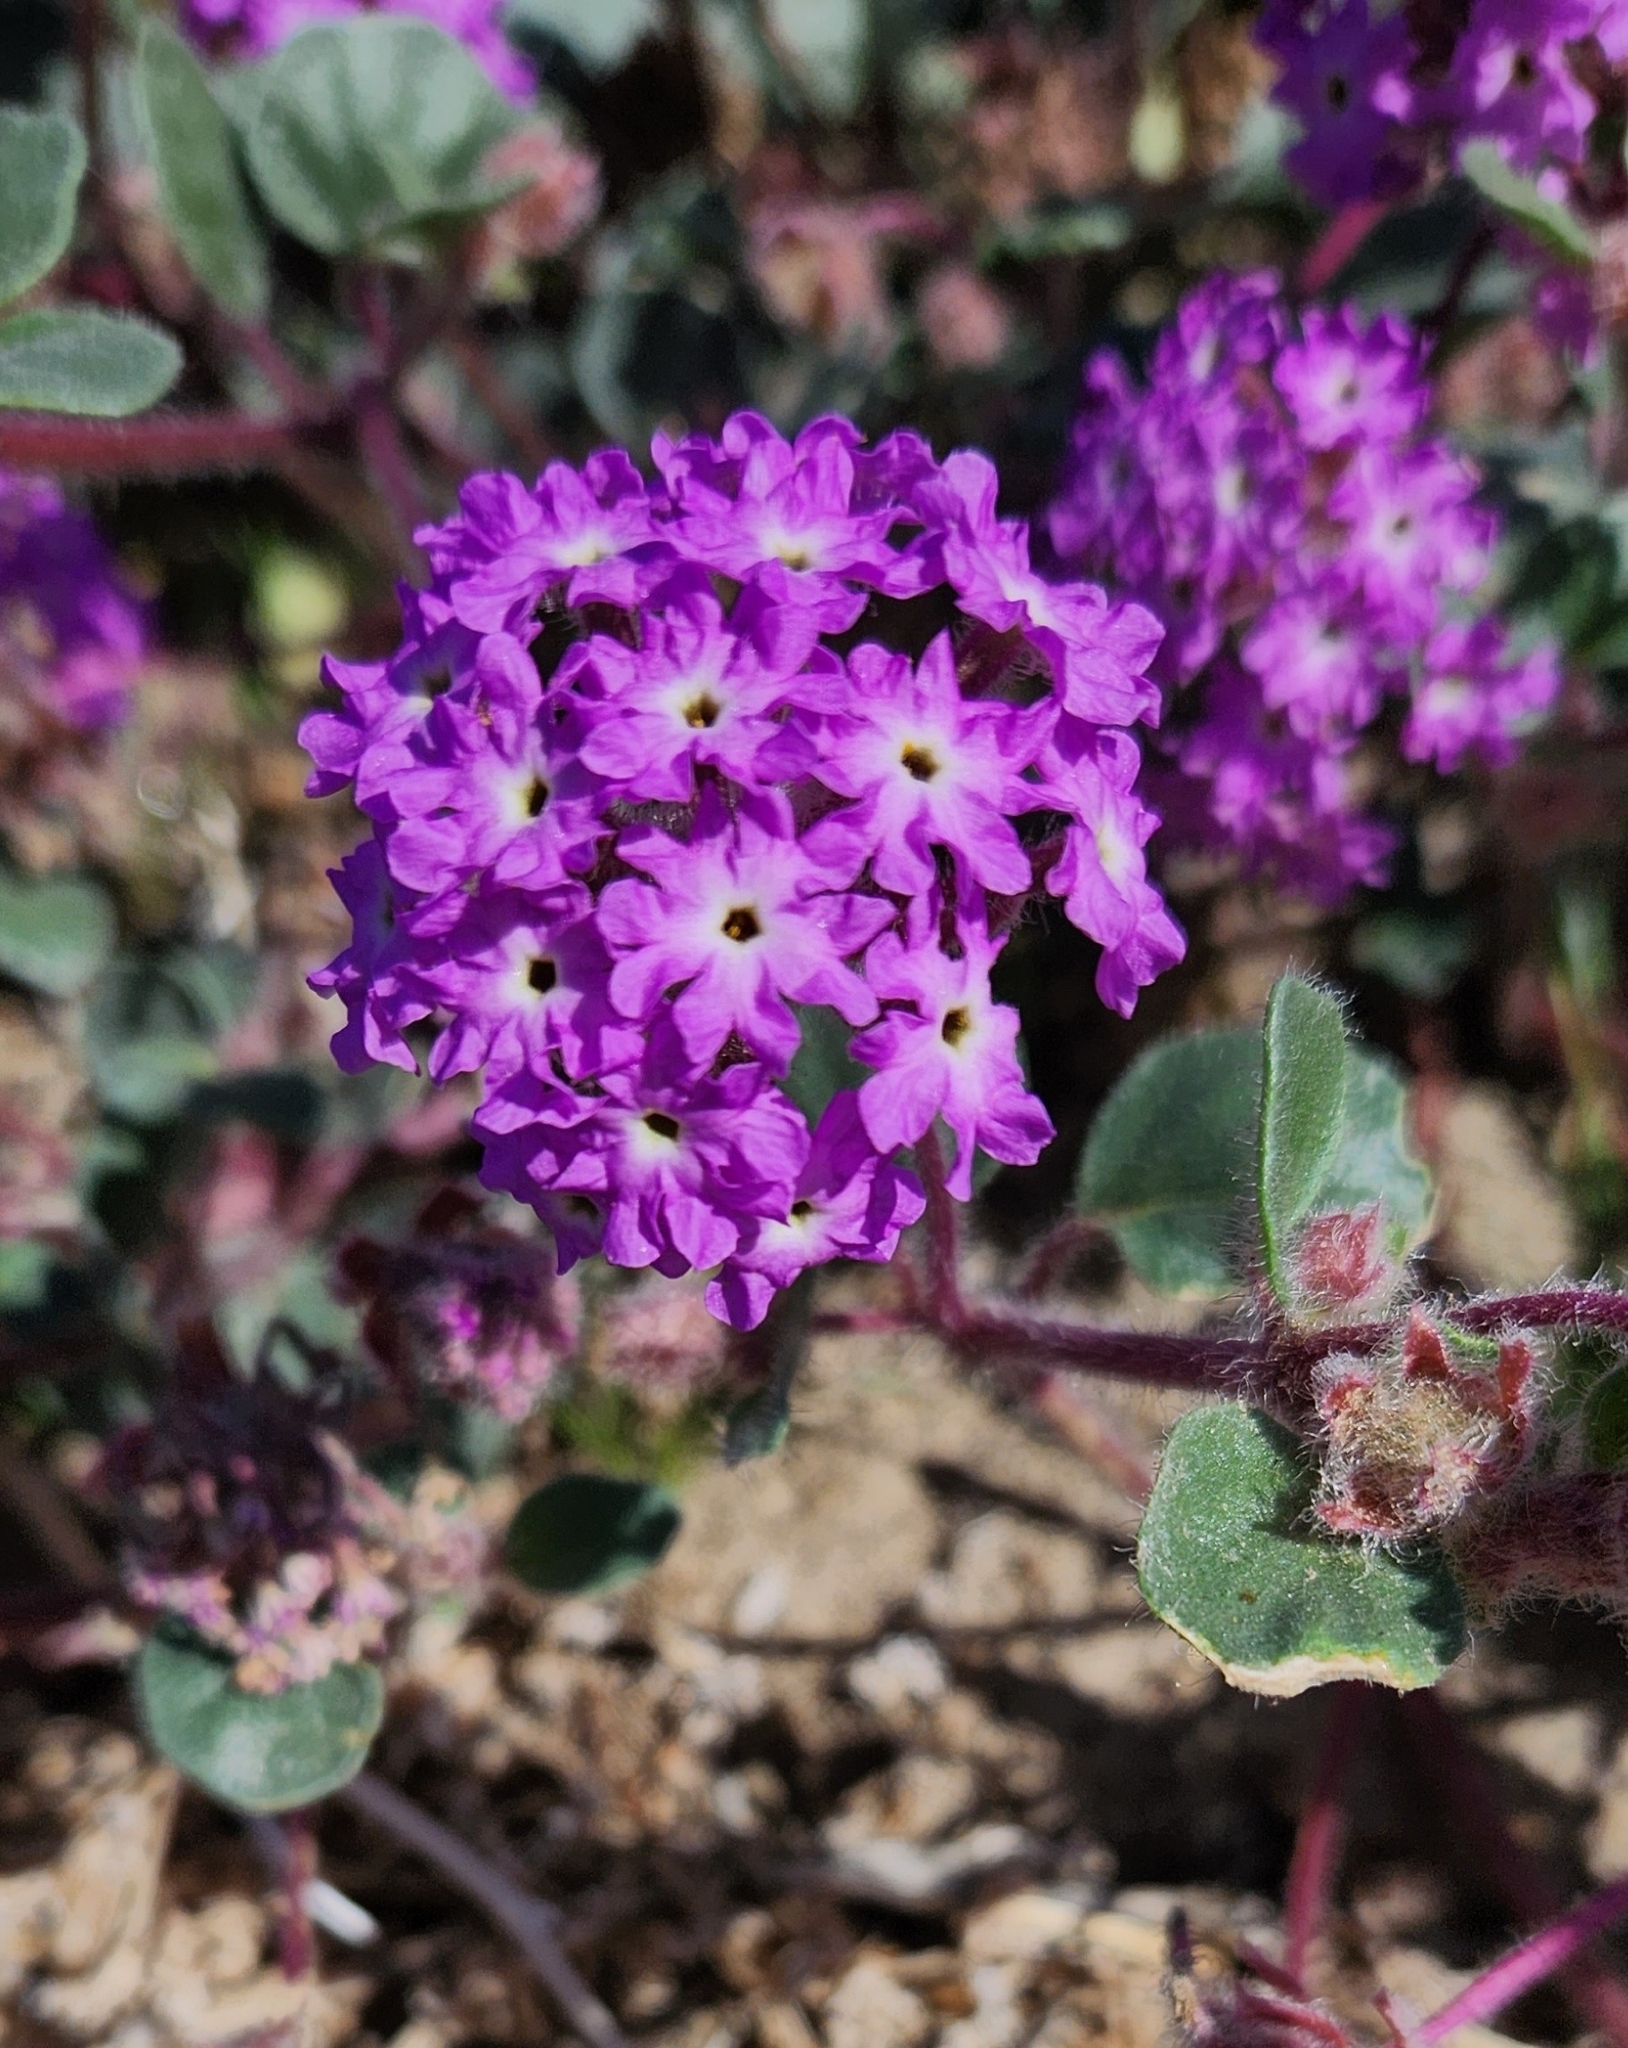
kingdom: Plantae
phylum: Tracheophyta
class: Magnoliopsida
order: Caryophyllales
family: Nyctaginaceae
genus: Abronia
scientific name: Abronia villosa
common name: Desert sand-verbena
